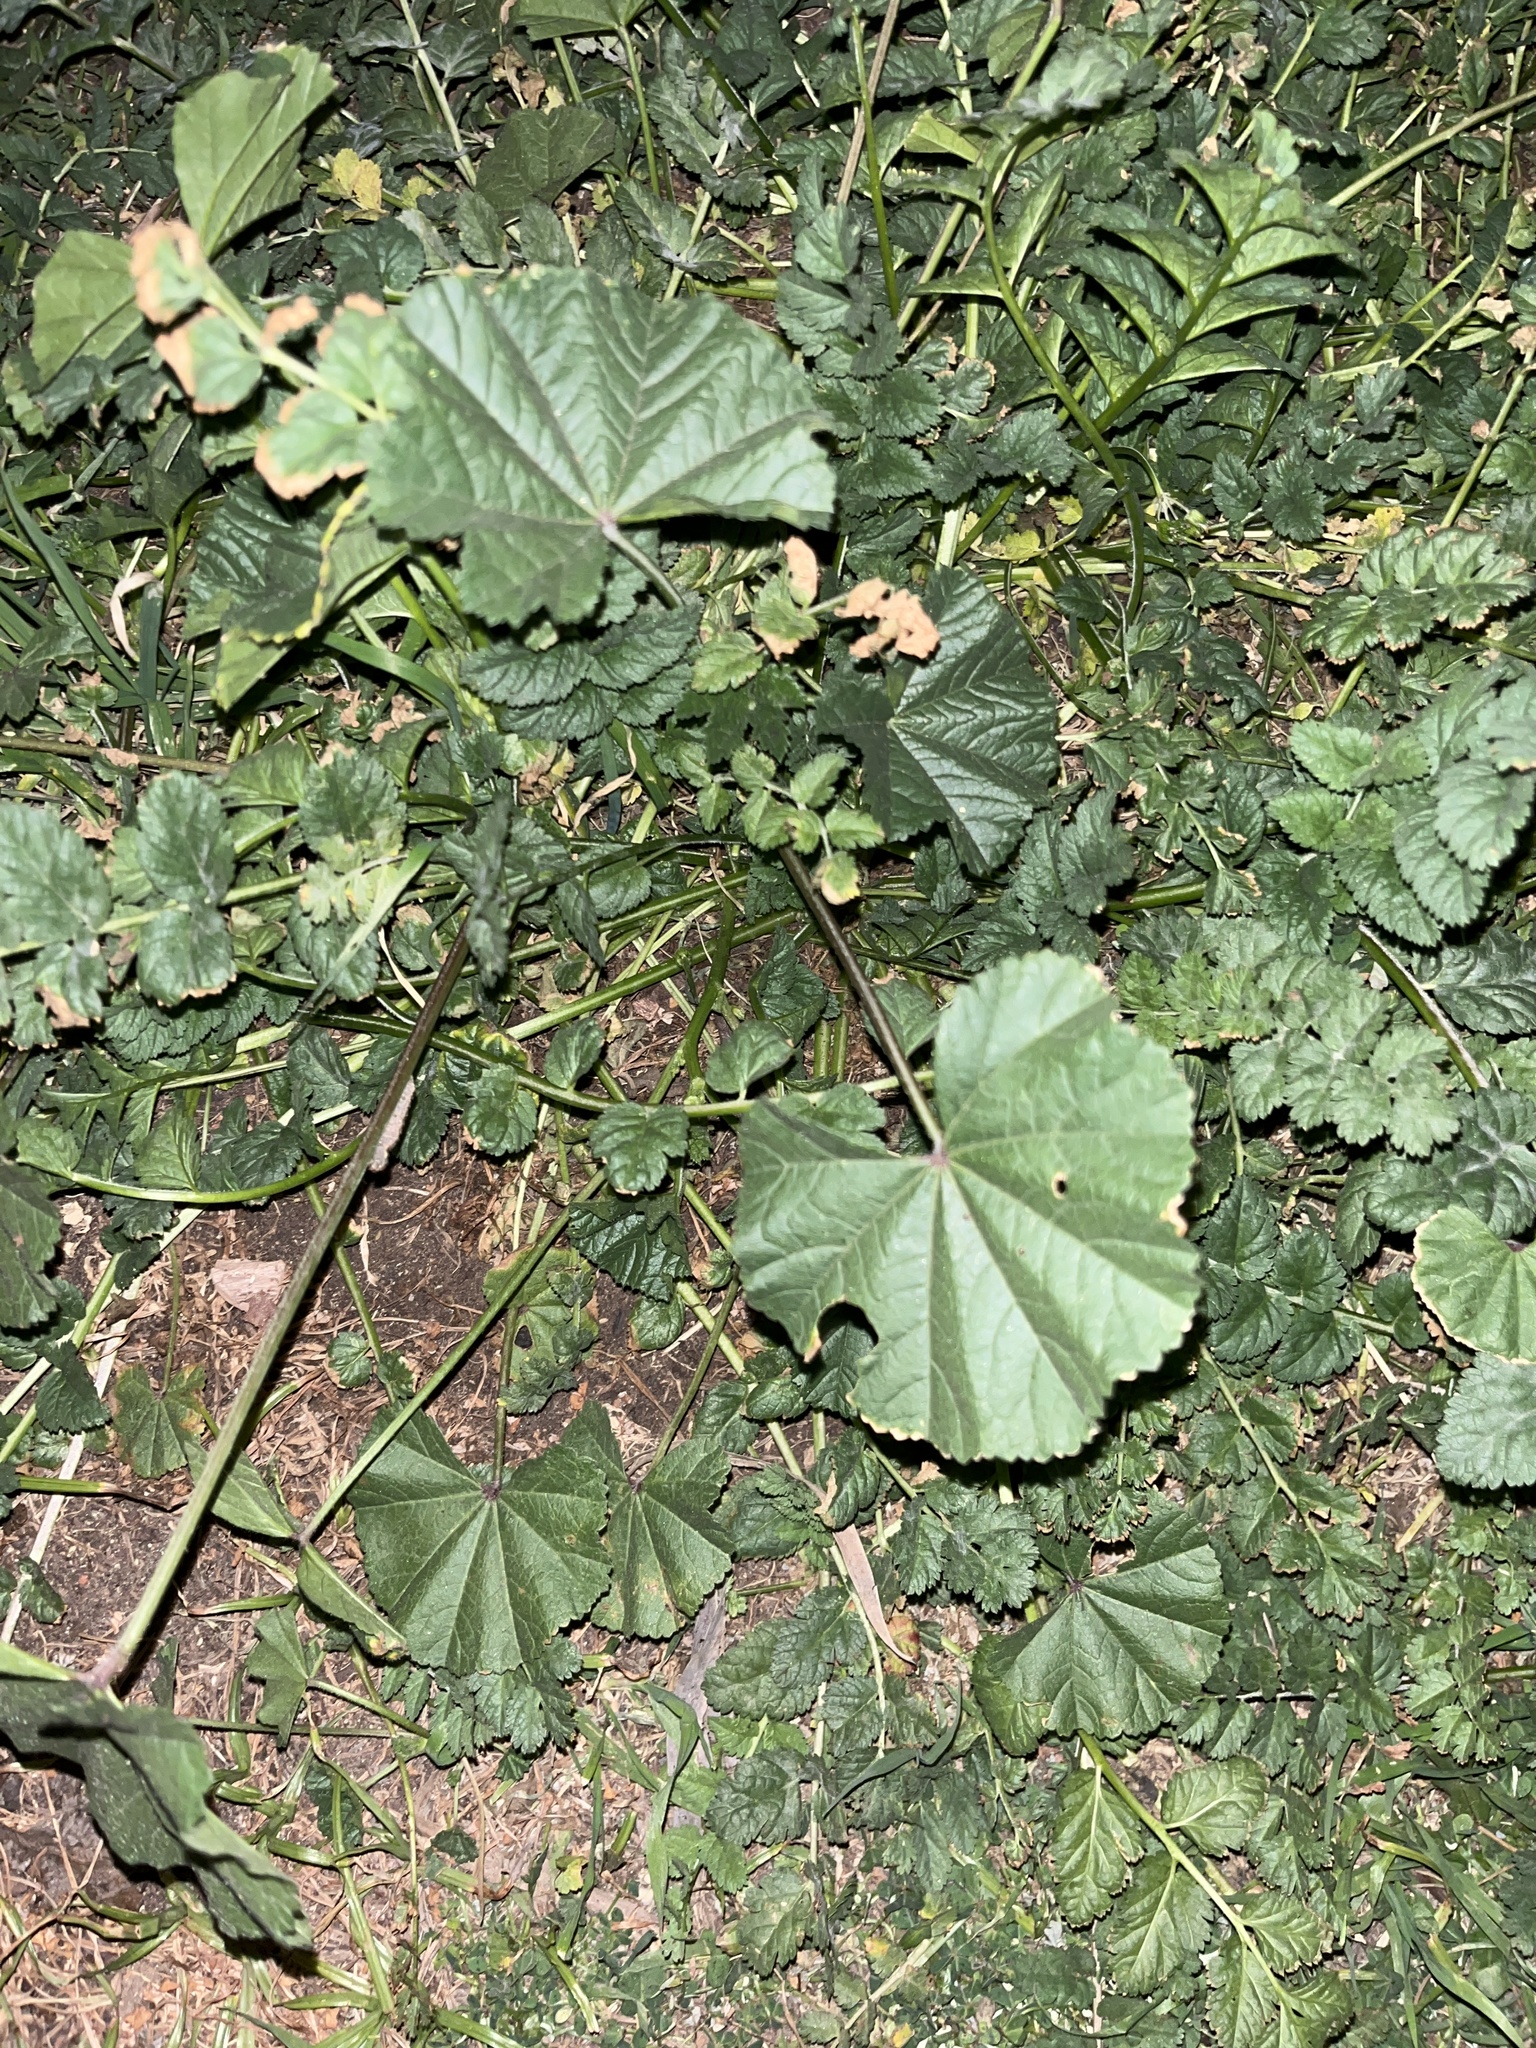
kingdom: Plantae
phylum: Tracheophyta
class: Magnoliopsida
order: Malvales
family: Malvaceae
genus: Malva
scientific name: Malva
